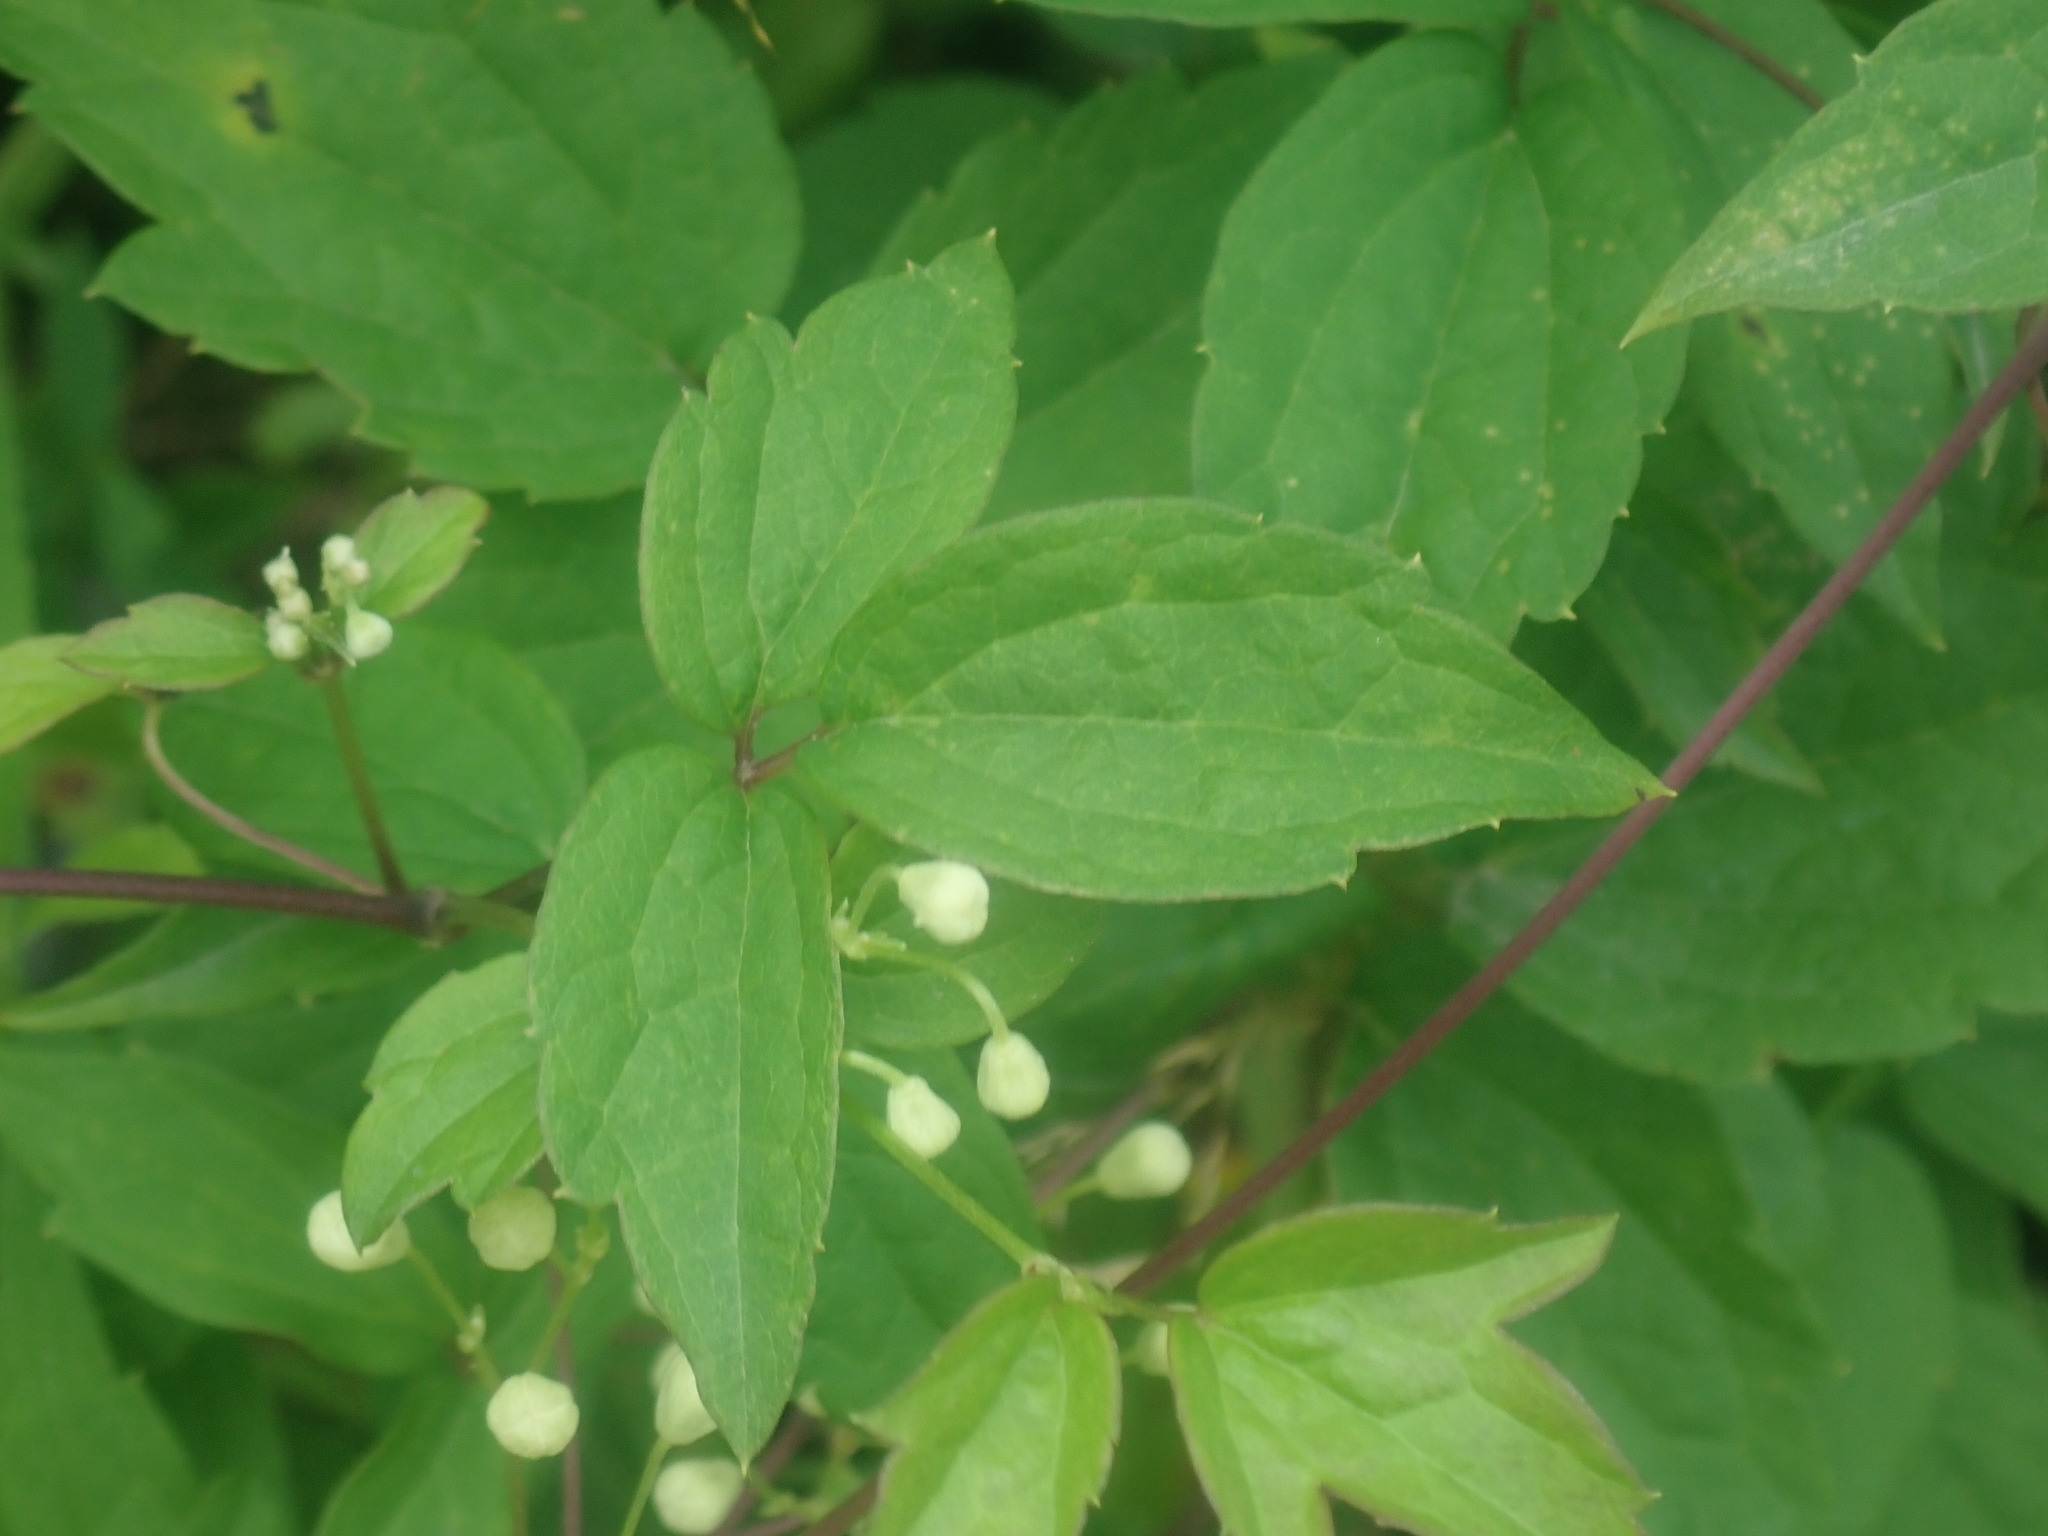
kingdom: Plantae
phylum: Tracheophyta
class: Magnoliopsida
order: Ranunculales
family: Ranunculaceae
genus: Clematis
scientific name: Clematis virginiana
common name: Virgin's-bower
